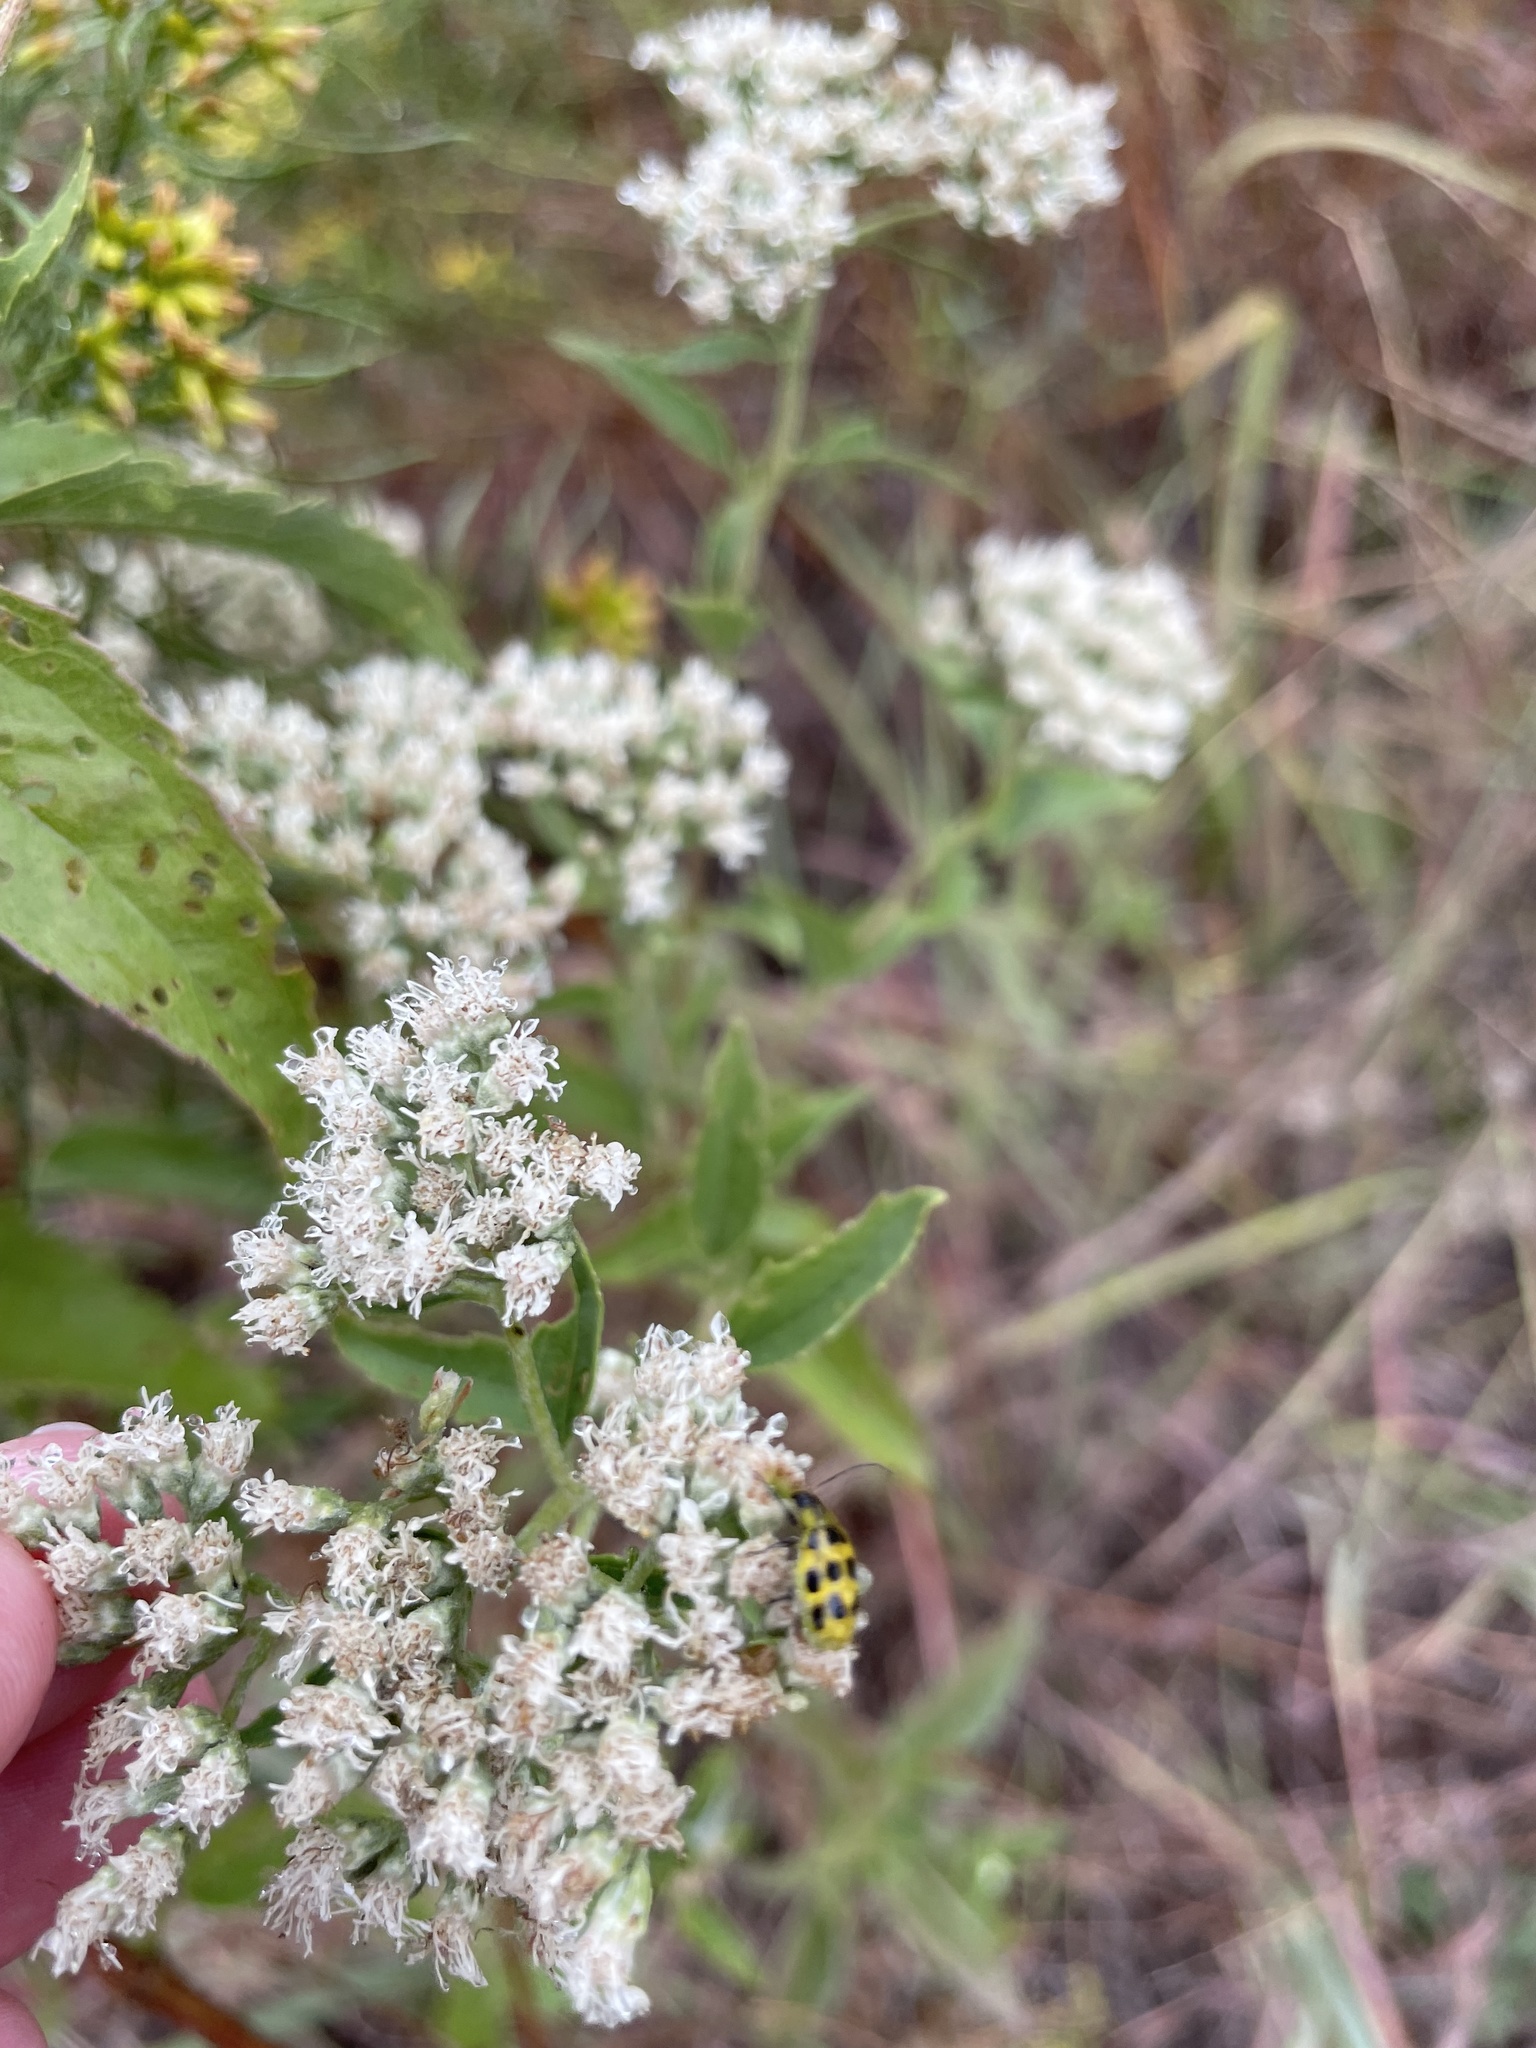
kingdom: Animalia
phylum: Arthropoda
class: Insecta
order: Coleoptera
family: Chrysomelidae
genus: Diabrotica
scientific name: Diabrotica undecimpunctata
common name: Spotted cucumber beetle
